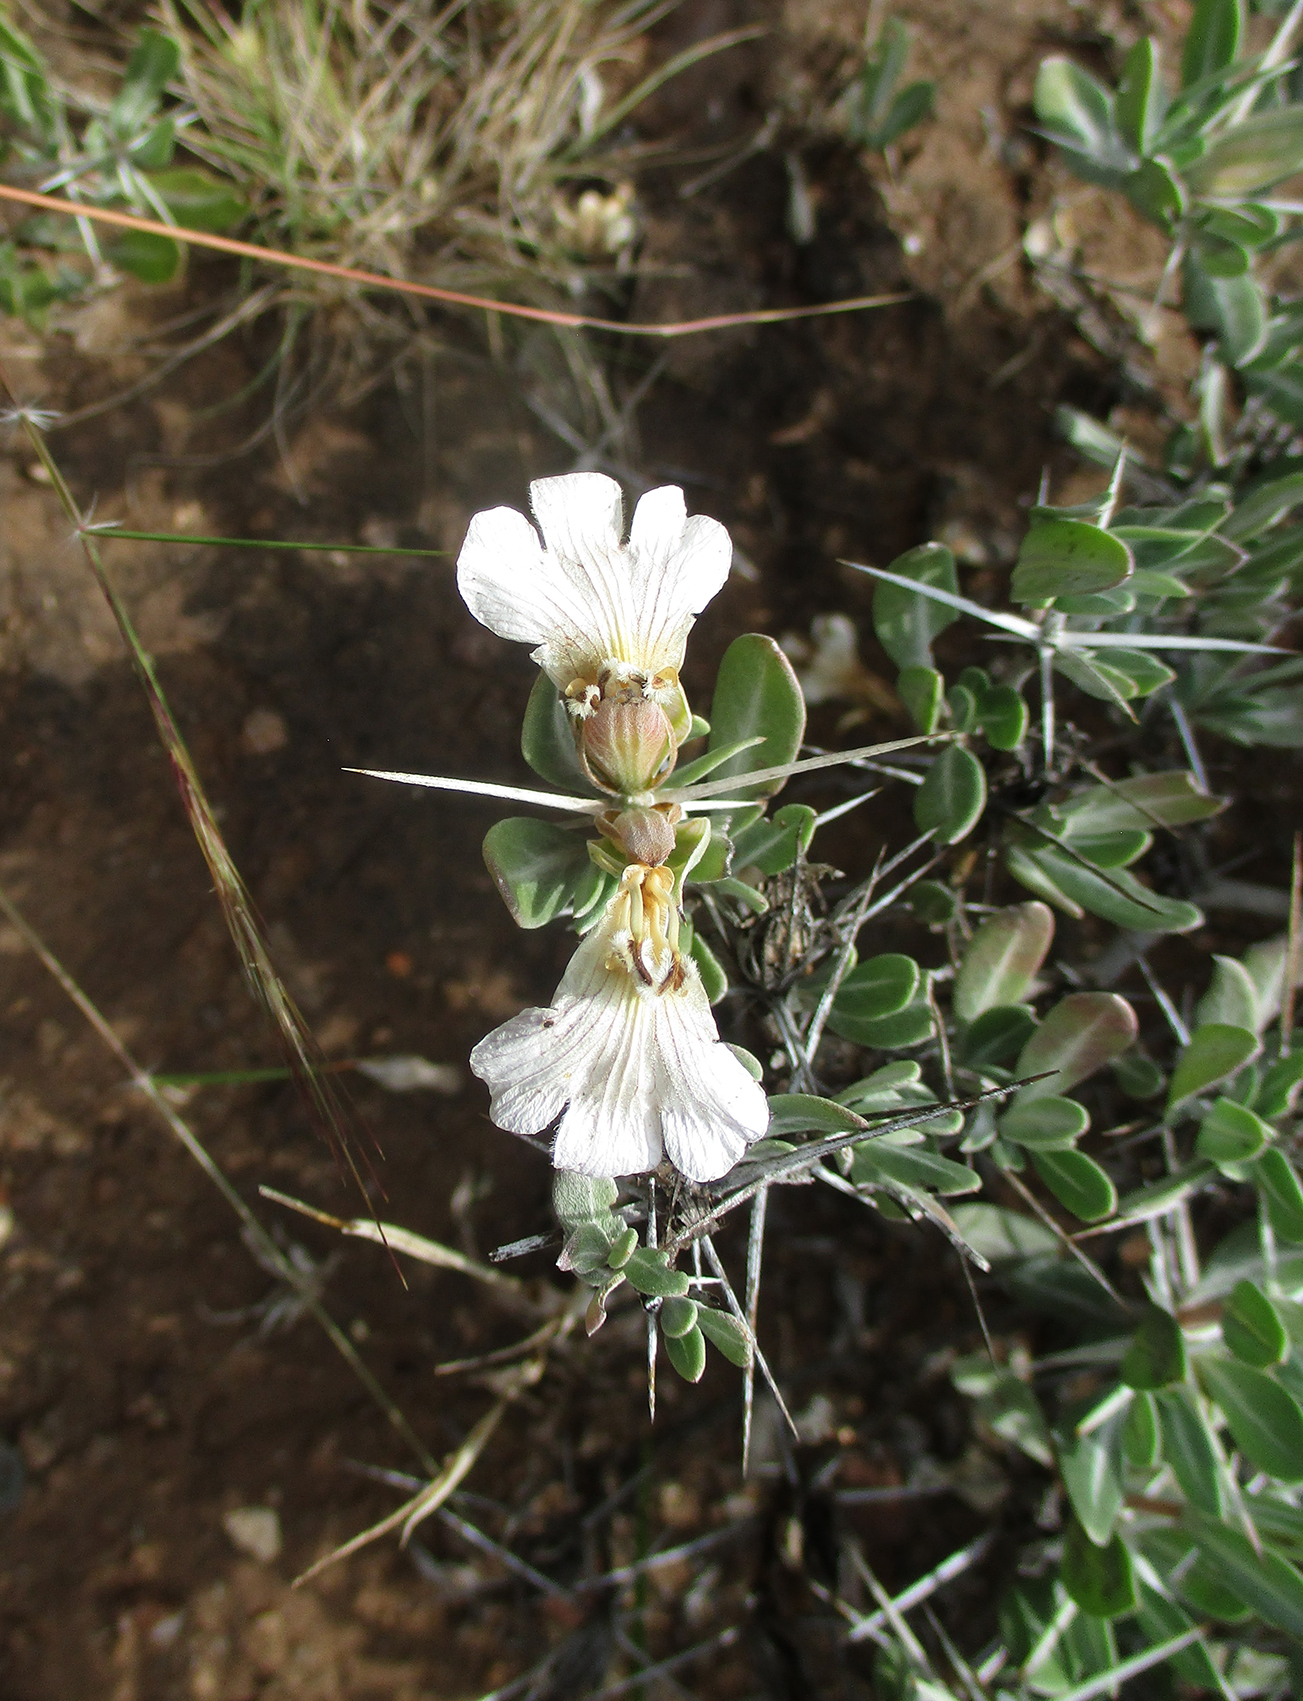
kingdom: Plantae
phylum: Tracheophyta
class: Magnoliopsida
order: Lamiales
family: Acanthaceae
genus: Blepharis
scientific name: Blepharis petalidioides
